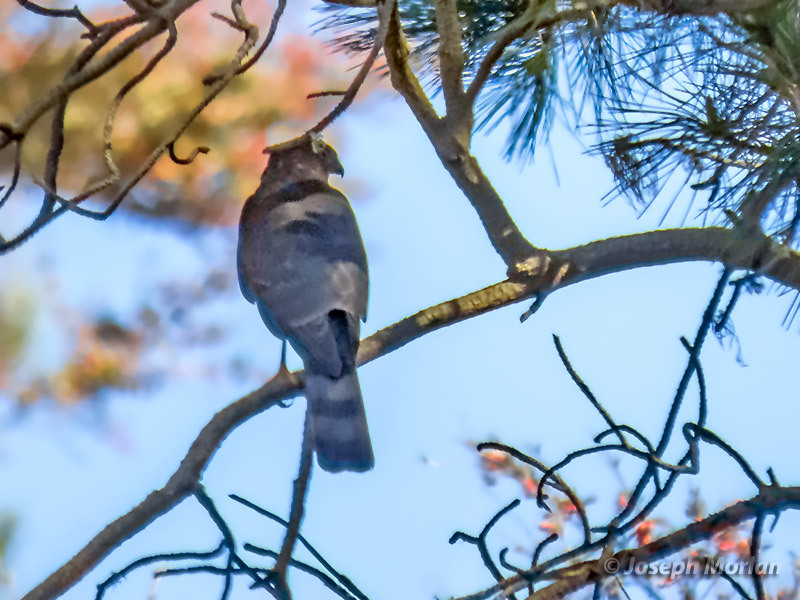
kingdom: Animalia
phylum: Chordata
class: Aves
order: Accipitriformes
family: Accipitridae
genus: Accipiter
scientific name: Accipiter striatus
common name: Sharp-shinned hawk
